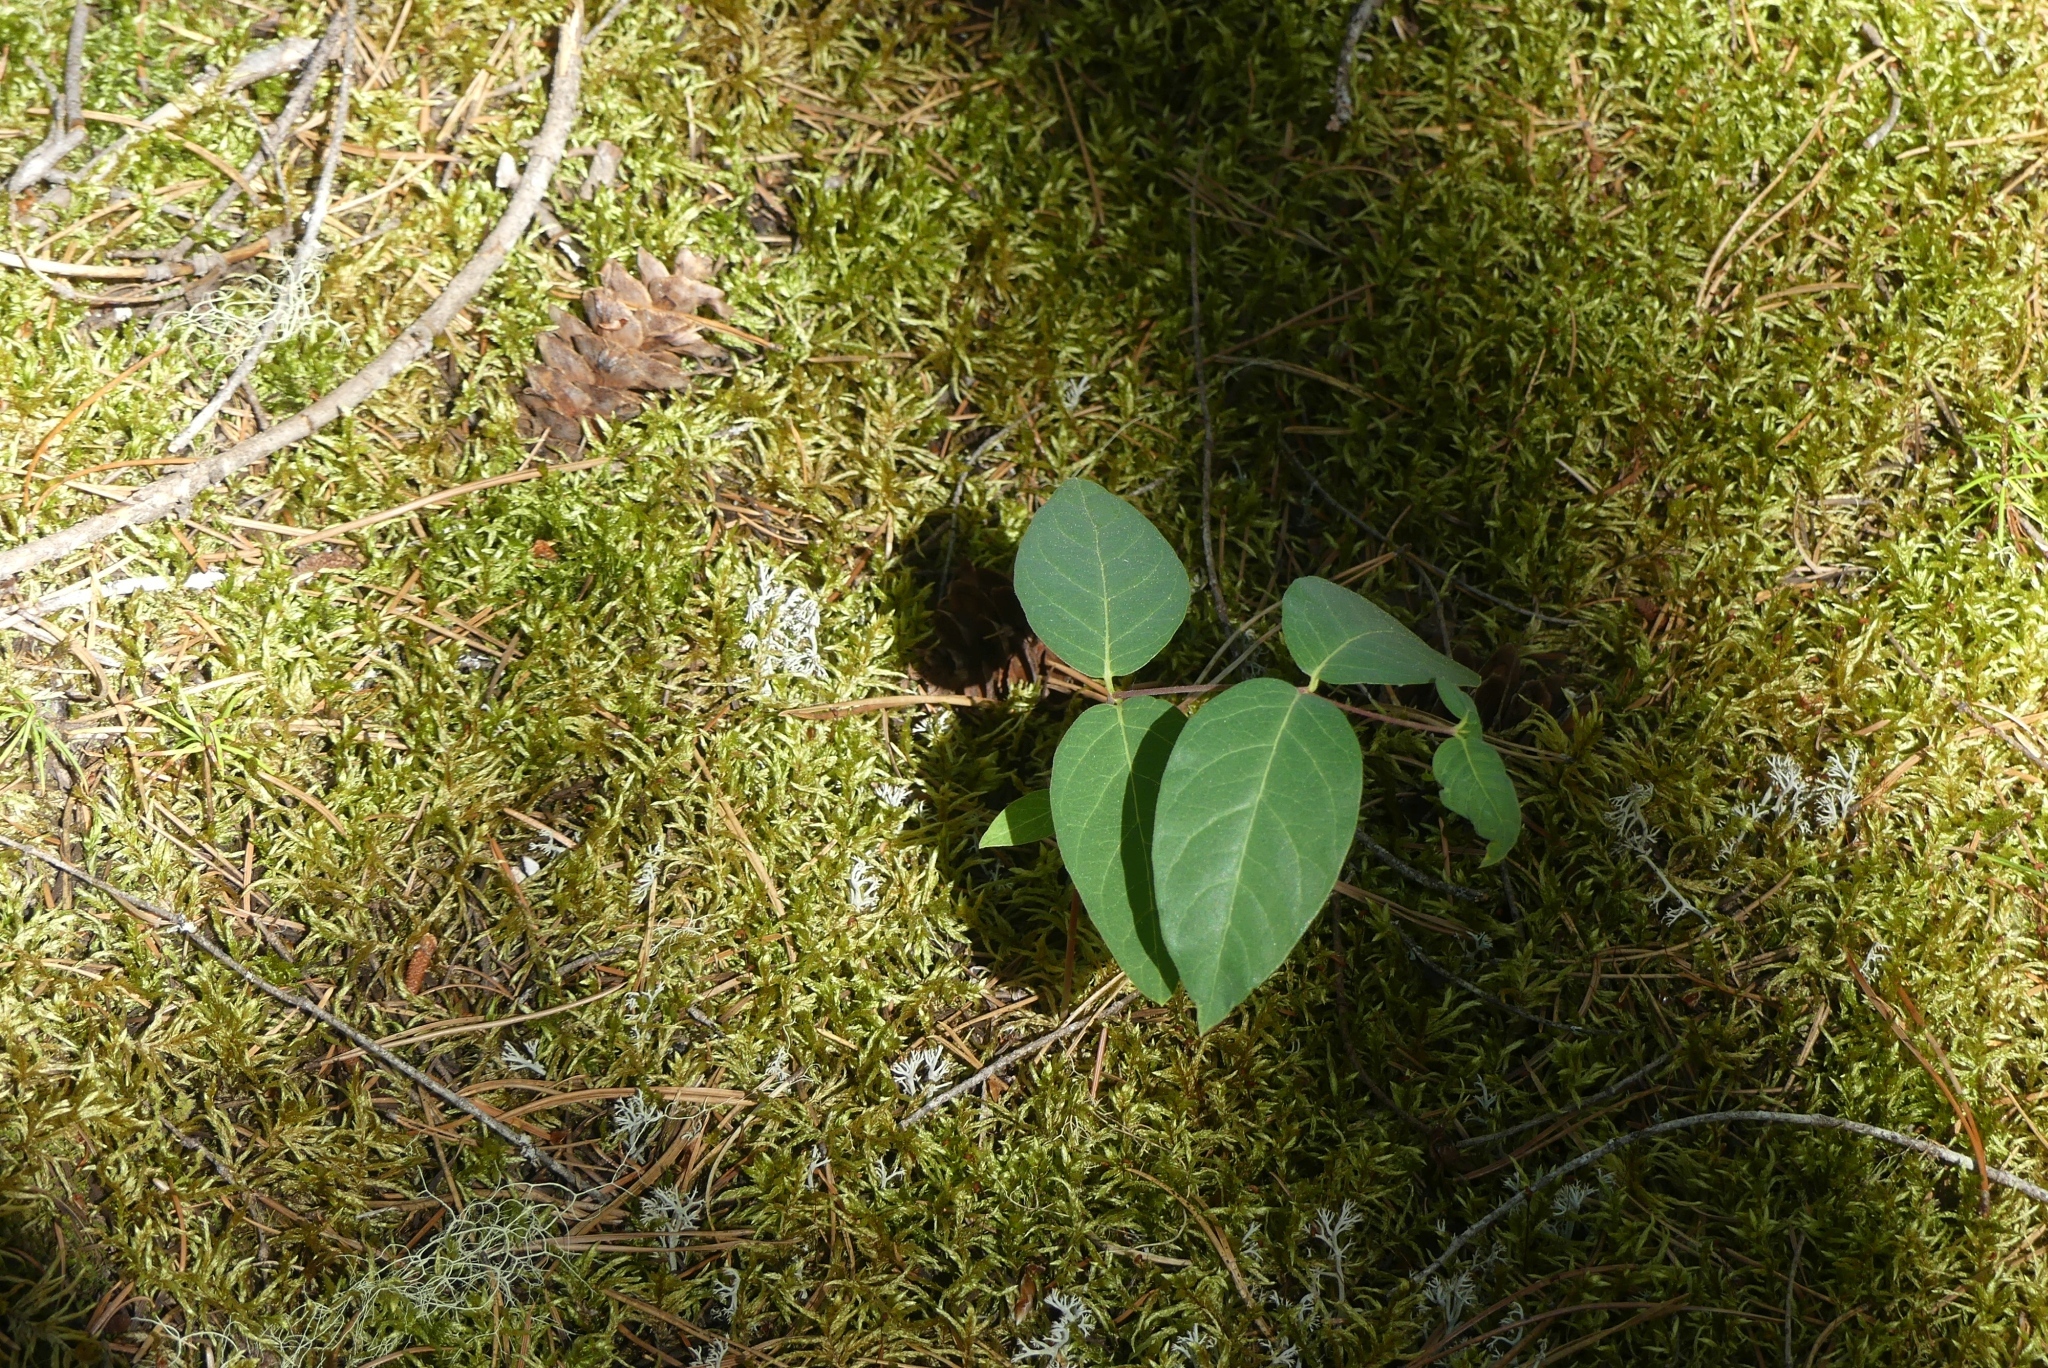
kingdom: Plantae
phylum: Tracheophyta
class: Magnoliopsida
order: Gentianales
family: Apocynaceae
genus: Apocynum
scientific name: Apocynum androsaemifolium
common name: Spreading dogbane
